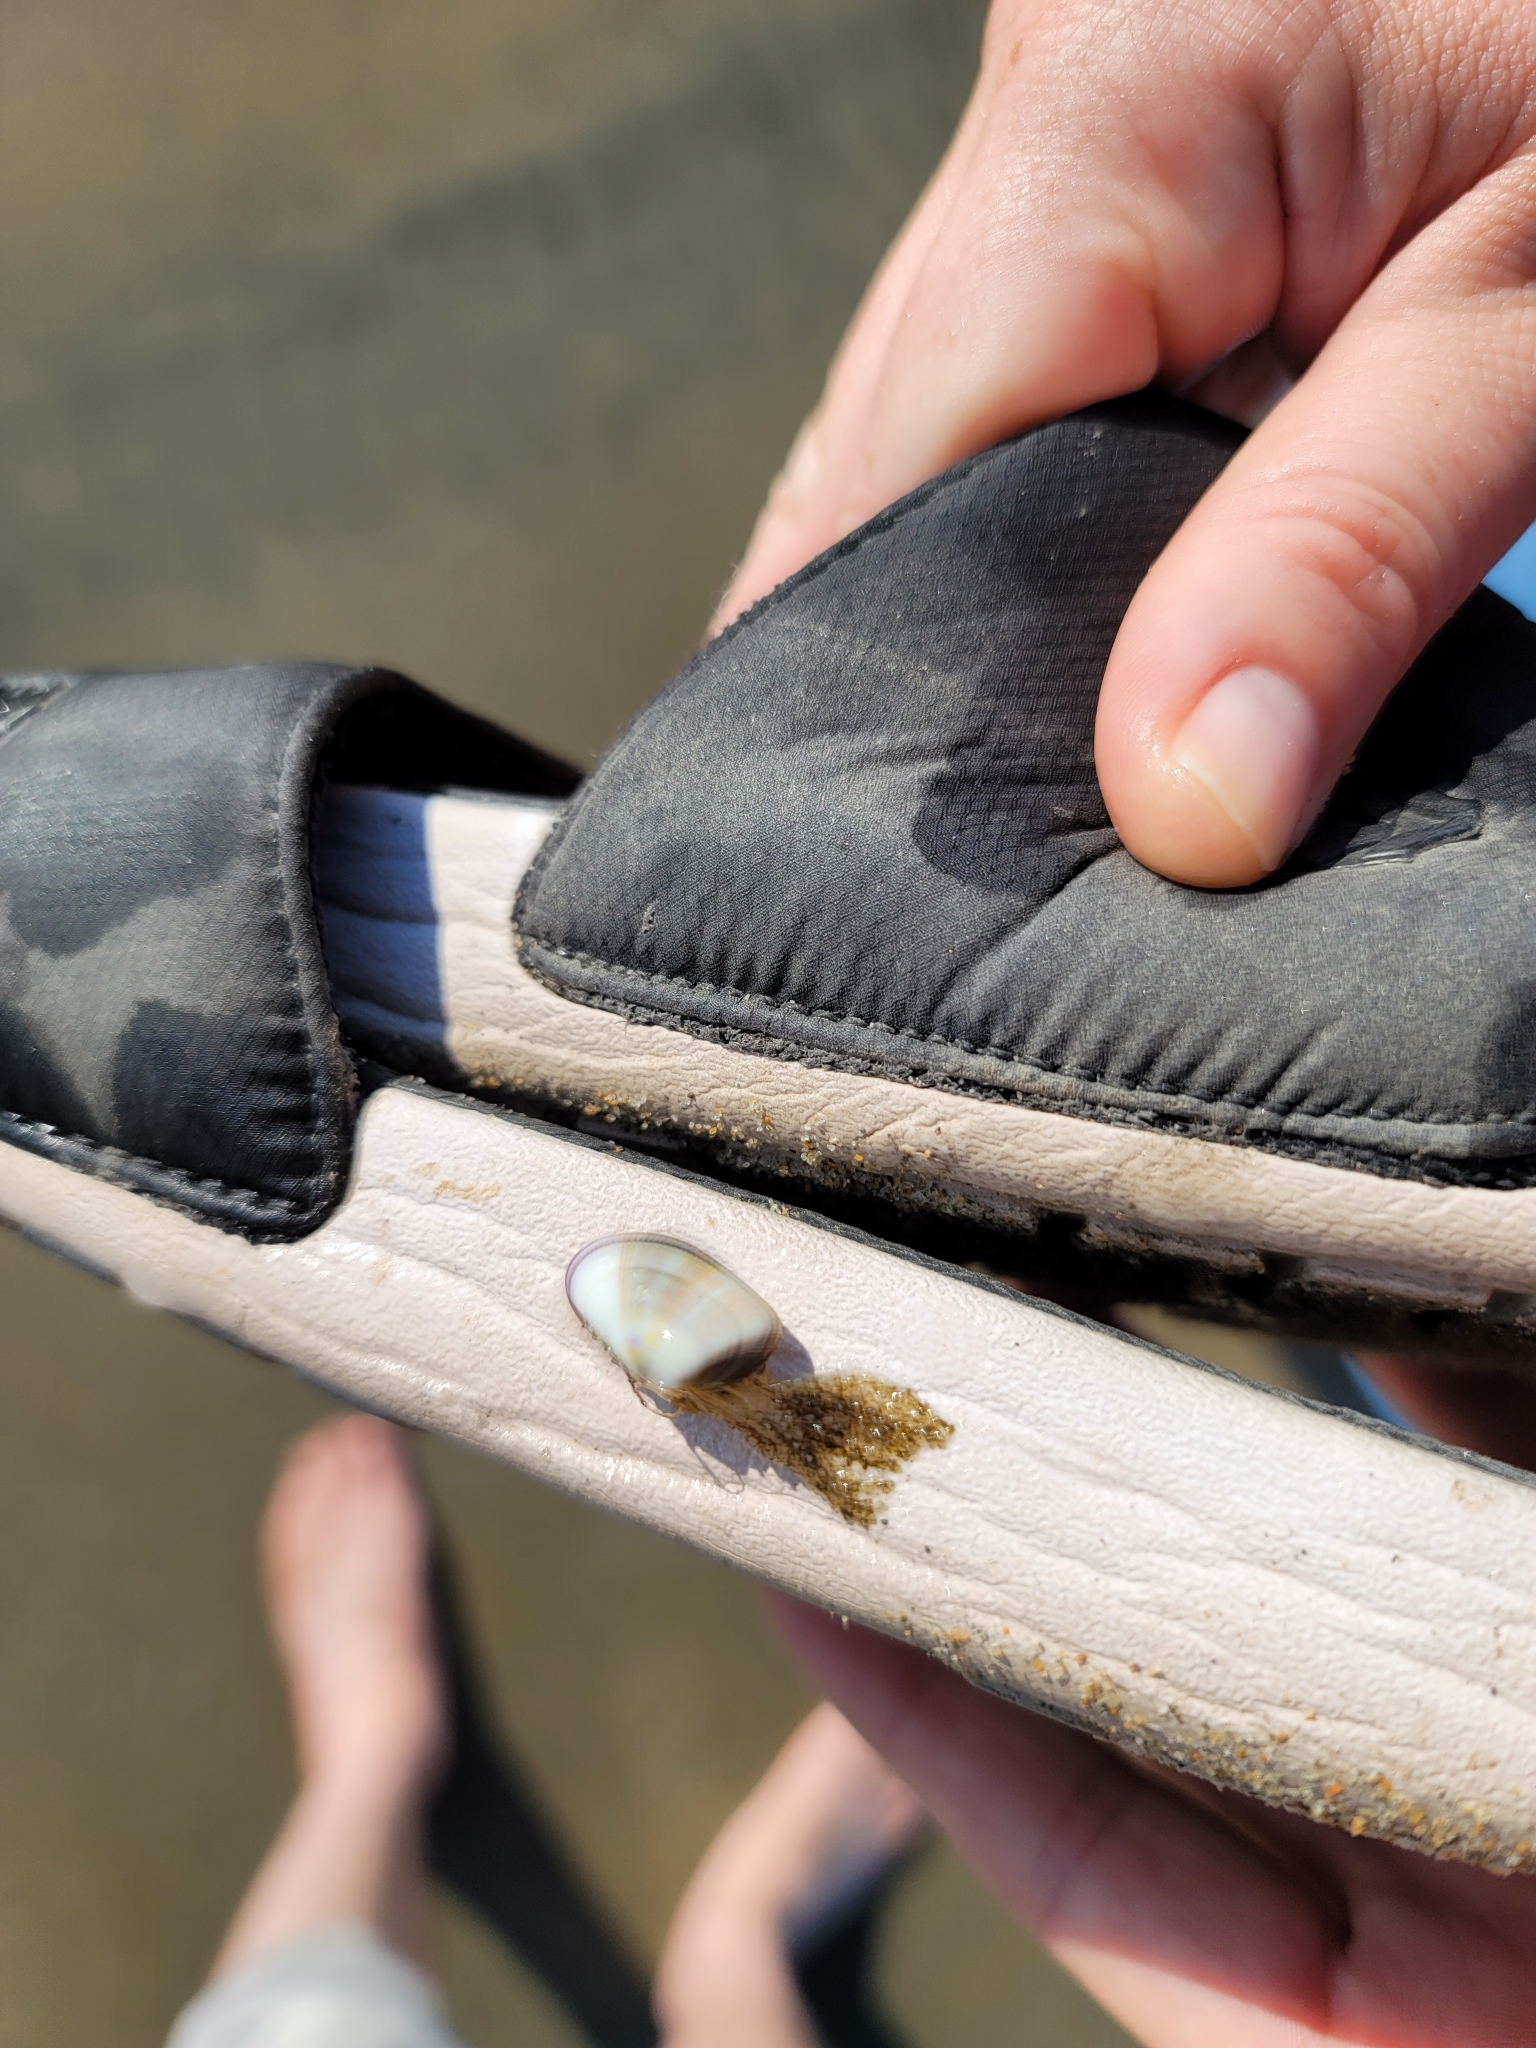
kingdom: Animalia
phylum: Mollusca
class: Bivalvia
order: Cardiida
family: Donacidae
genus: Donax
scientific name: Donax gouldii
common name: Gould beanclam
